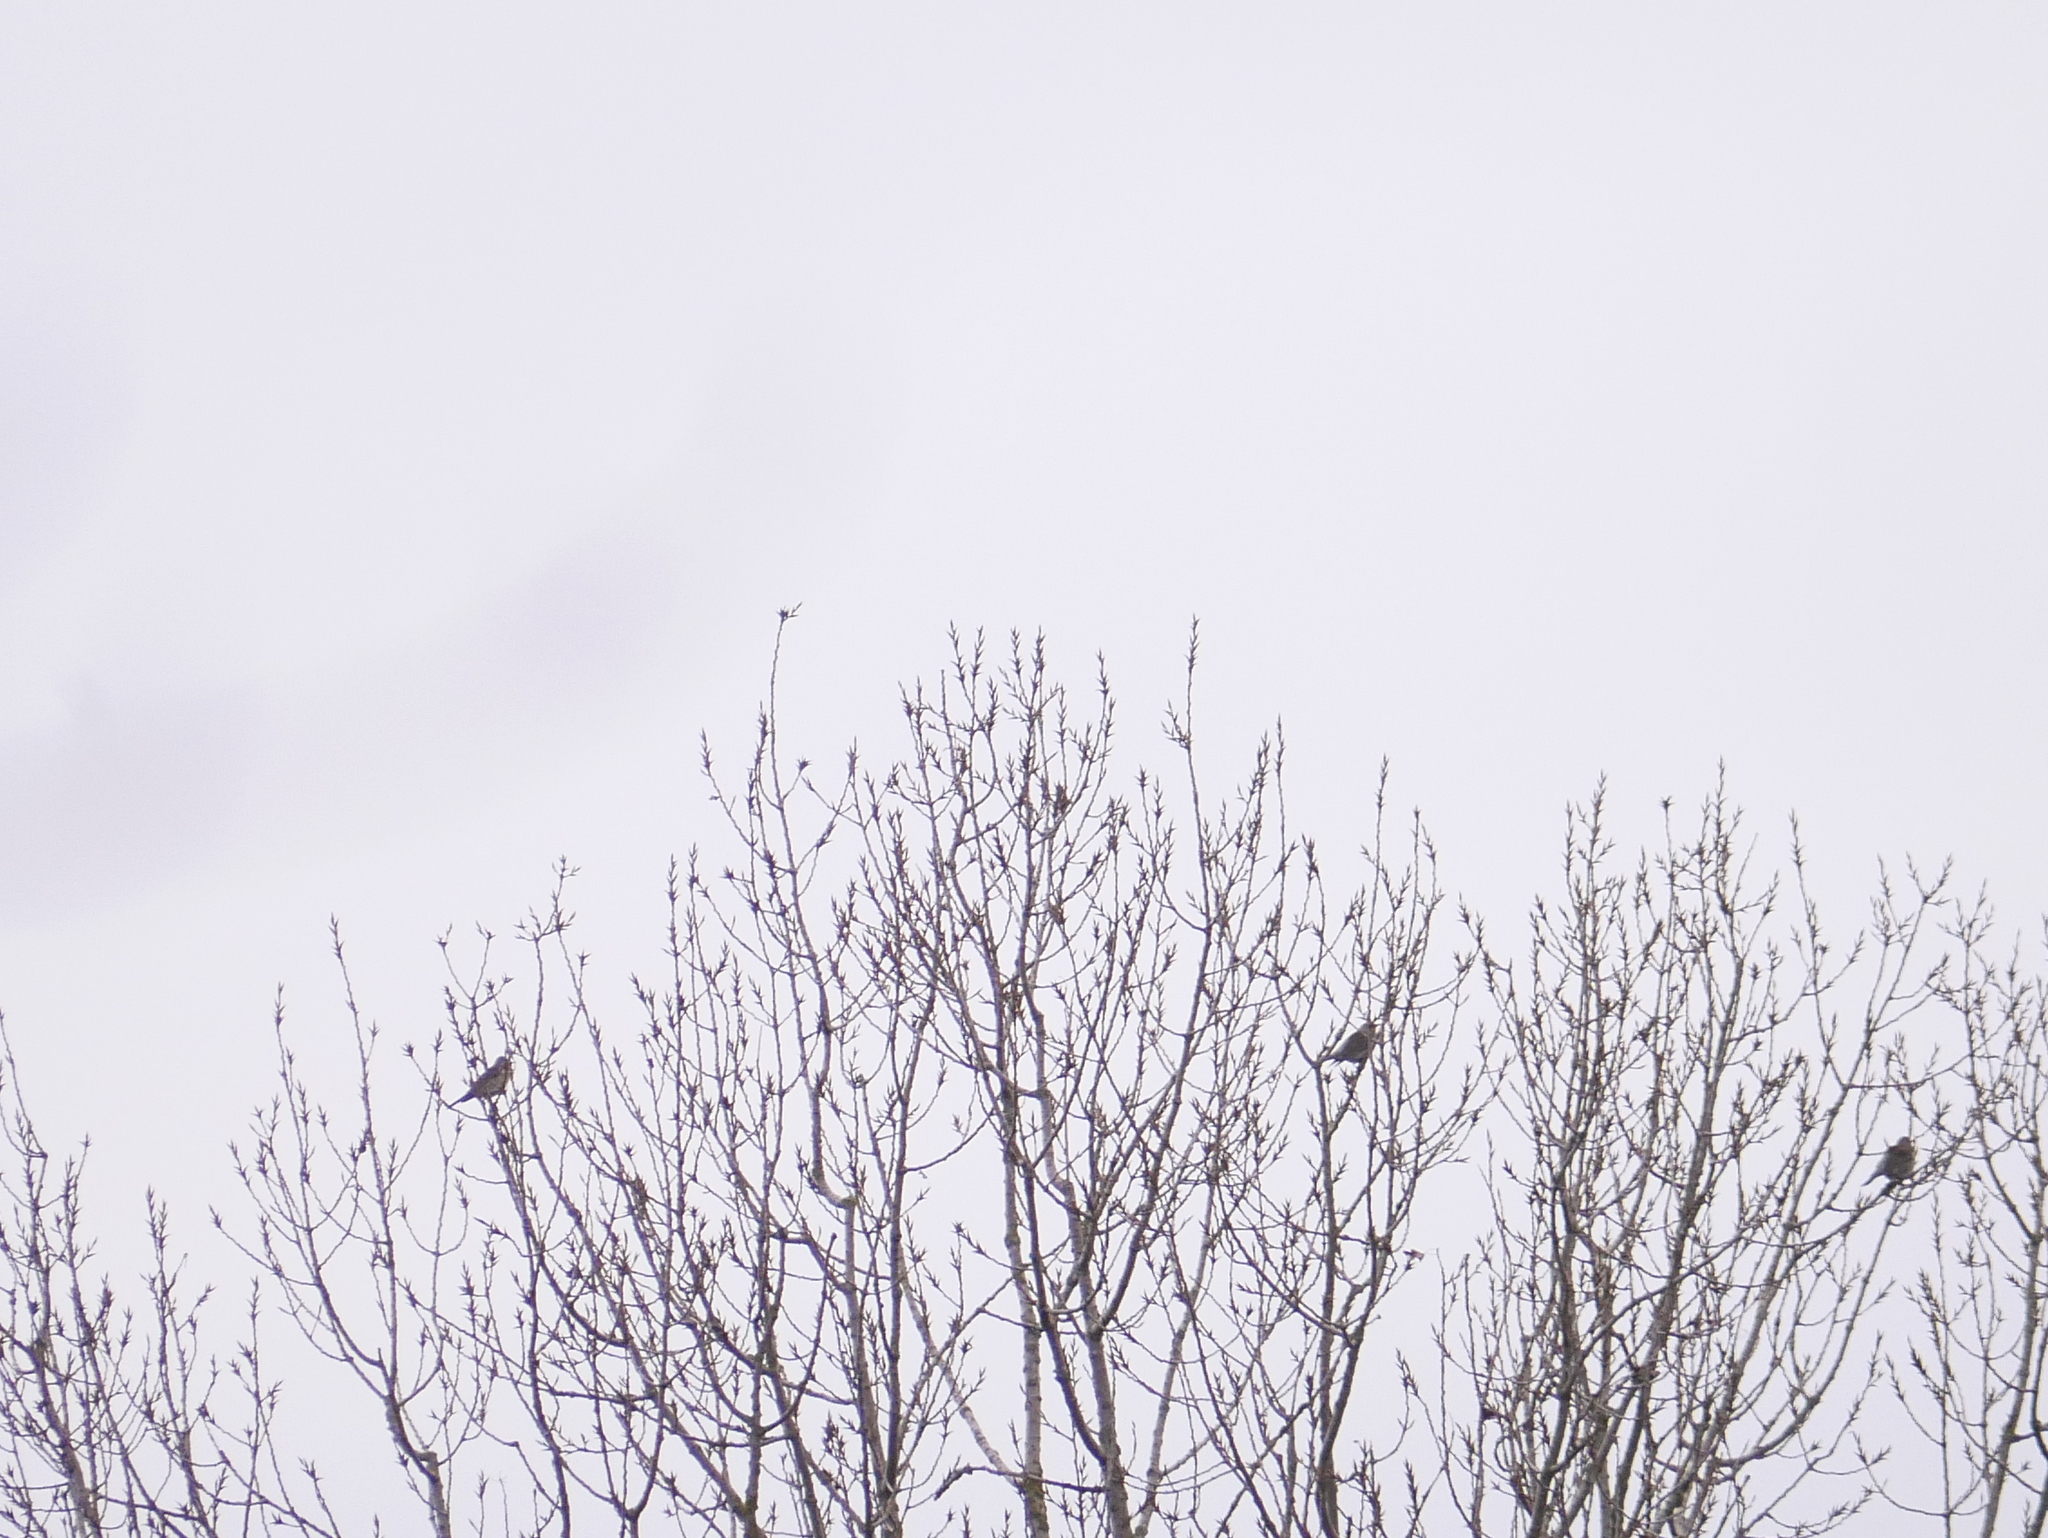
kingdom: Animalia
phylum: Chordata
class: Aves
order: Passeriformes
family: Turdidae
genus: Turdus
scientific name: Turdus pilaris
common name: Fieldfare
